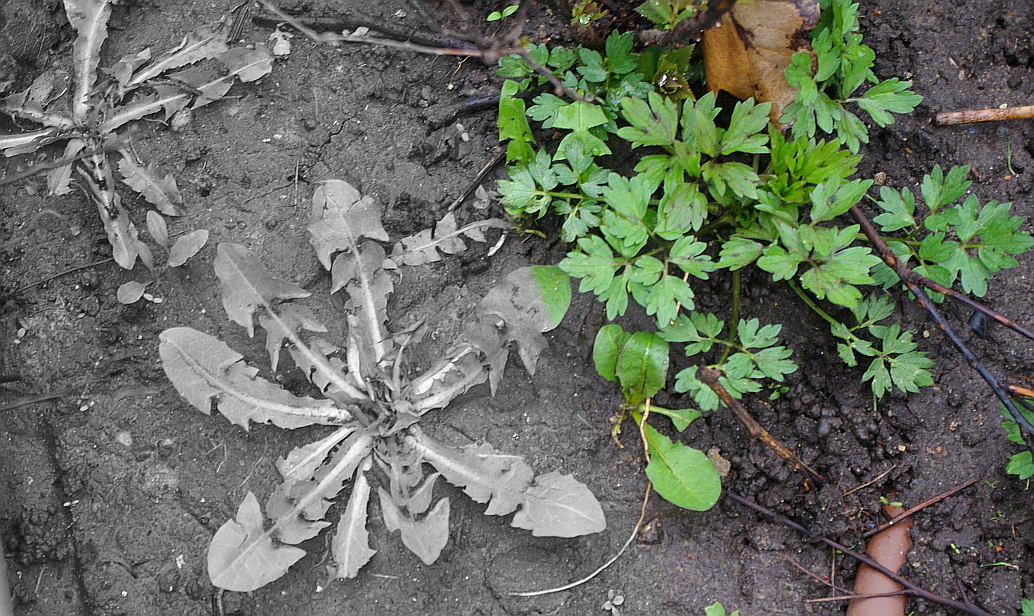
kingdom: Plantae
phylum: Tracheophyta
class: Magnoliopsida
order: Ranunculales
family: Ranunculaceae
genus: Ranunculus
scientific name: Ranunculus repens
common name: Creeping buttercup
